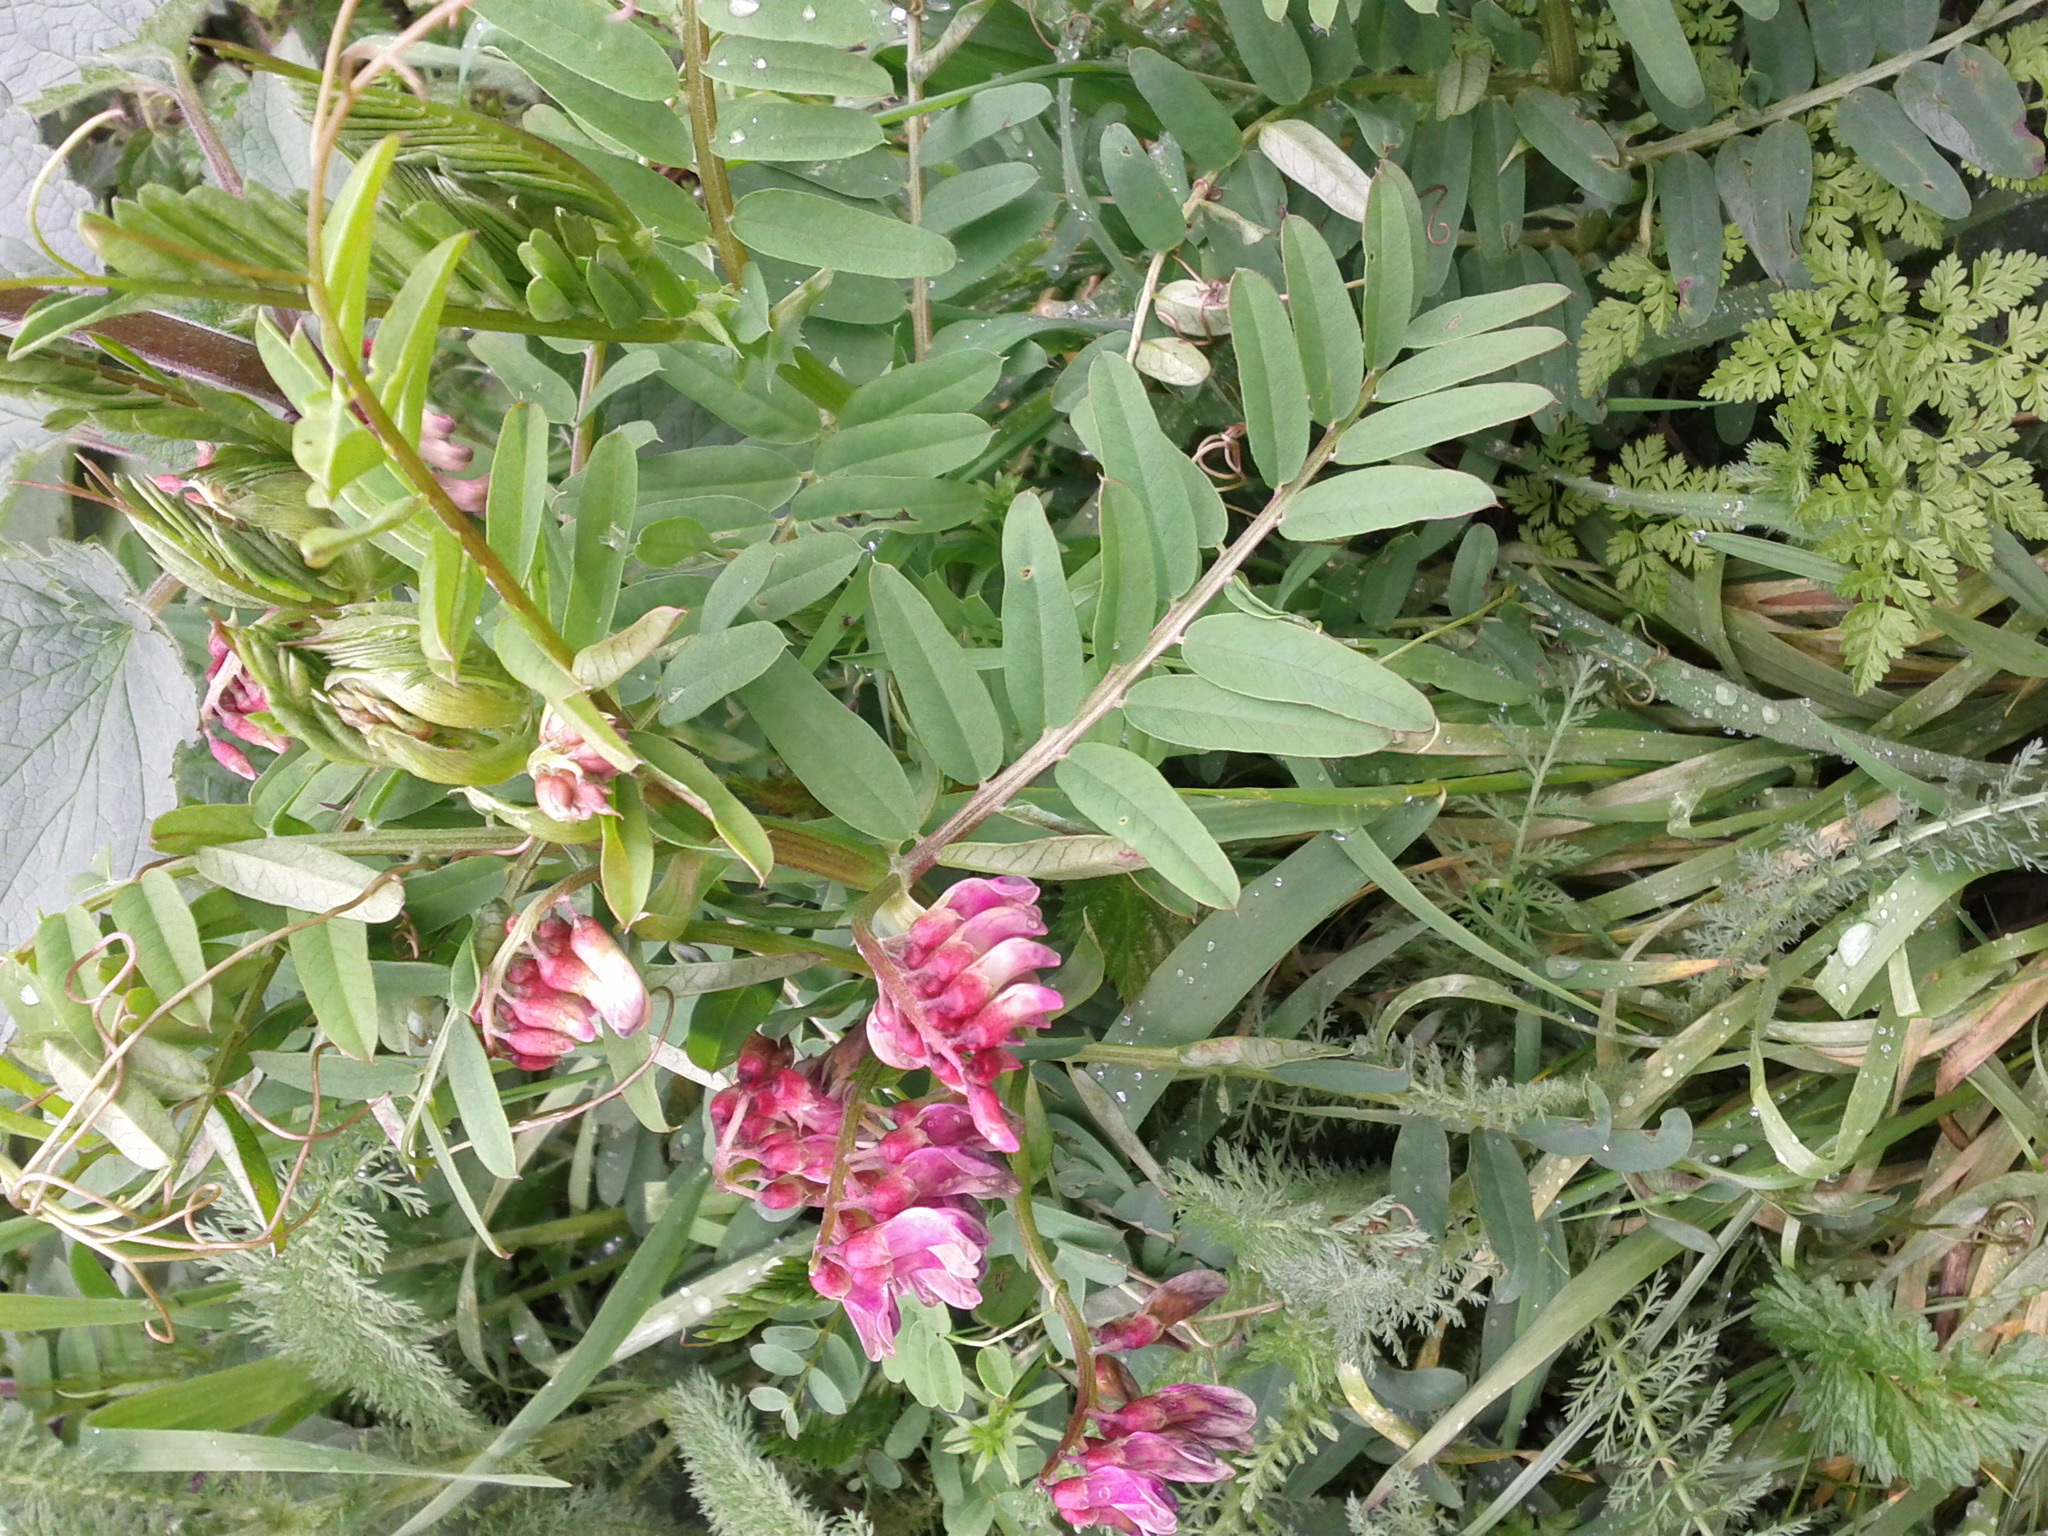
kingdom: Plantae
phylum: Tracheophyta
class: Magnoliopsida
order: Fabales
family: Fabaceae
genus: Vicia
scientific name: Vicia
